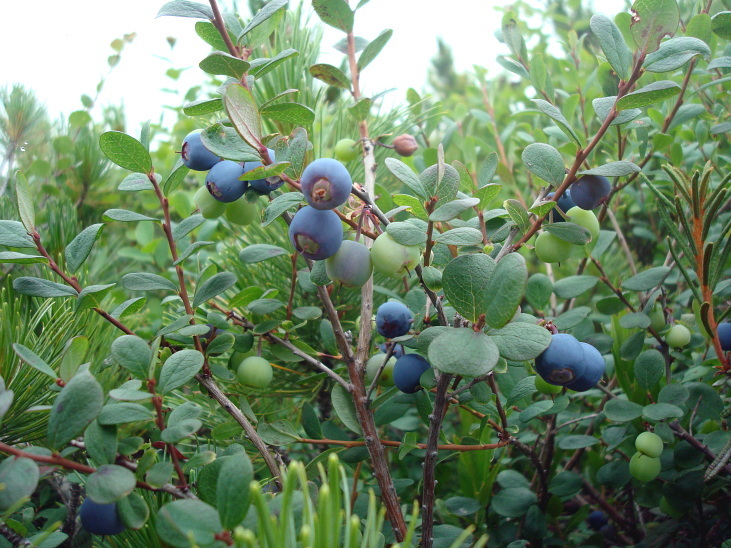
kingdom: Plantae
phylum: Tracheophyta
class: Magnoliopsida
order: Ericales
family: Ericaceae
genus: Vaccinium
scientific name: Vaccinium uliginosum
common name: Bog bilberry
